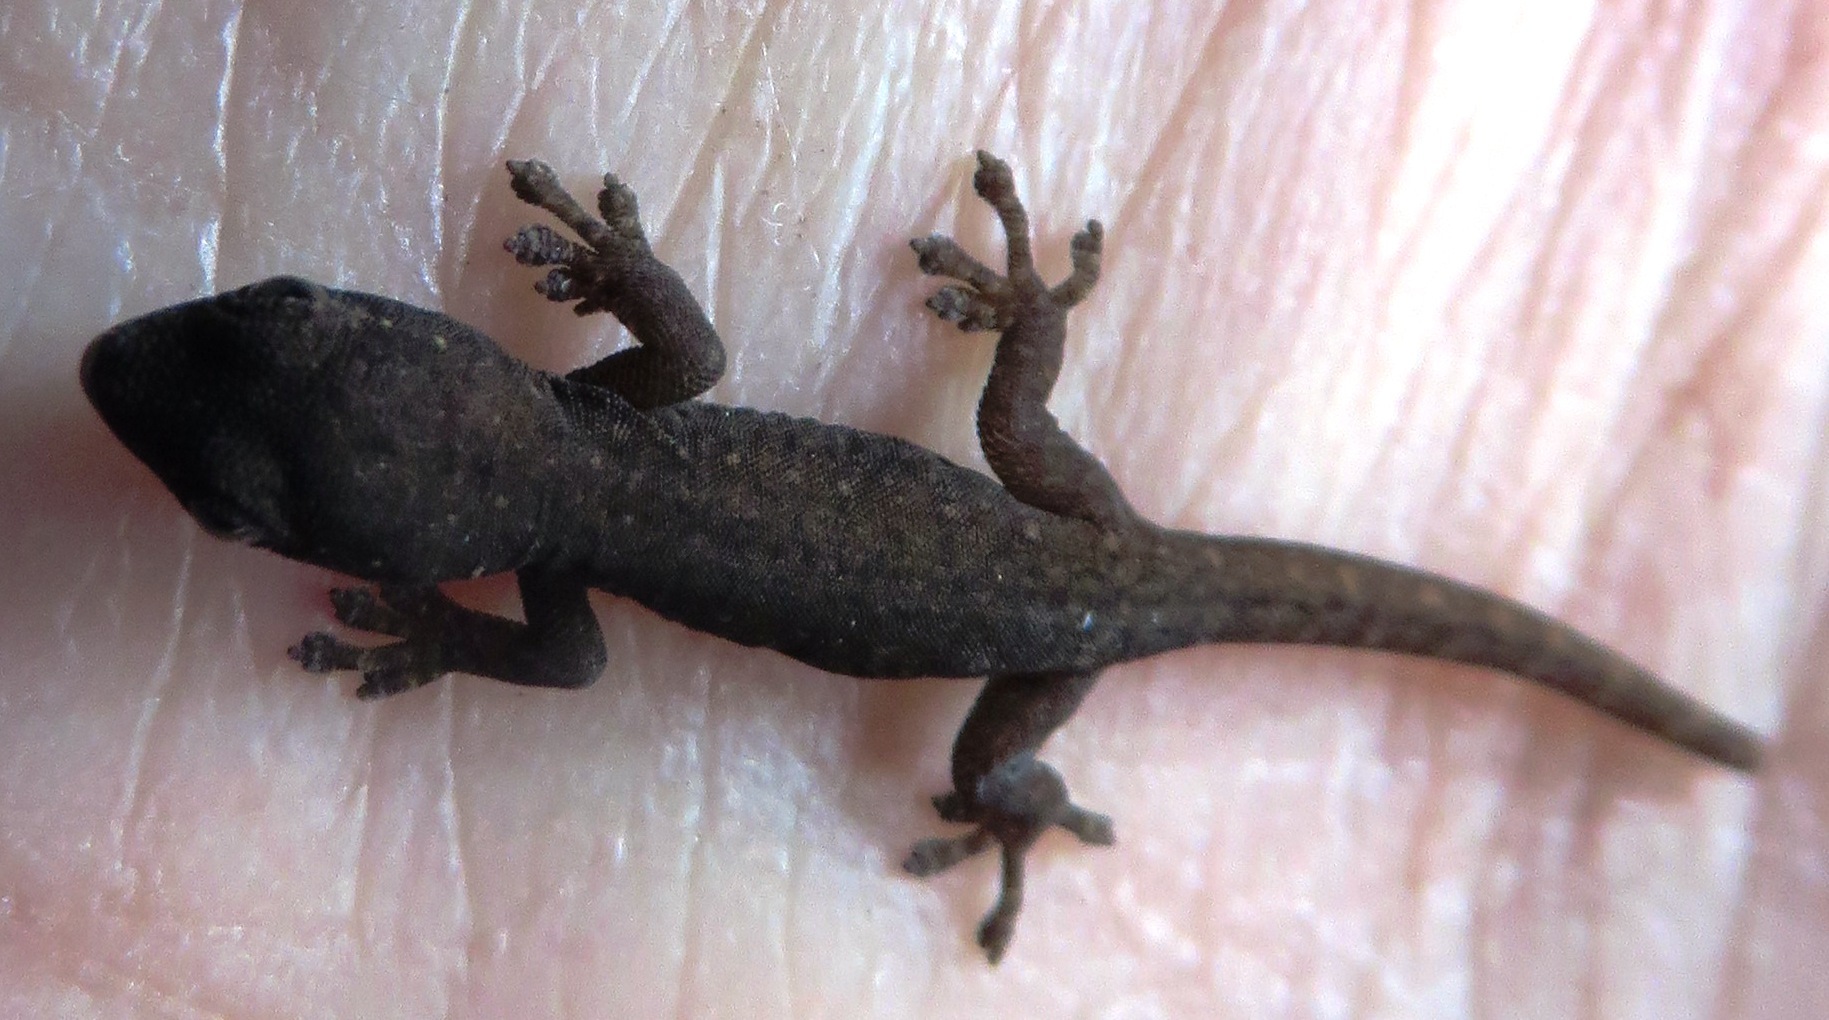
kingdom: Animalia
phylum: Chordata
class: Squamata
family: Gekkonidae
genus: Lygodactylus
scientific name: Lygodactylus capensis
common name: Cape dwarf gecko
